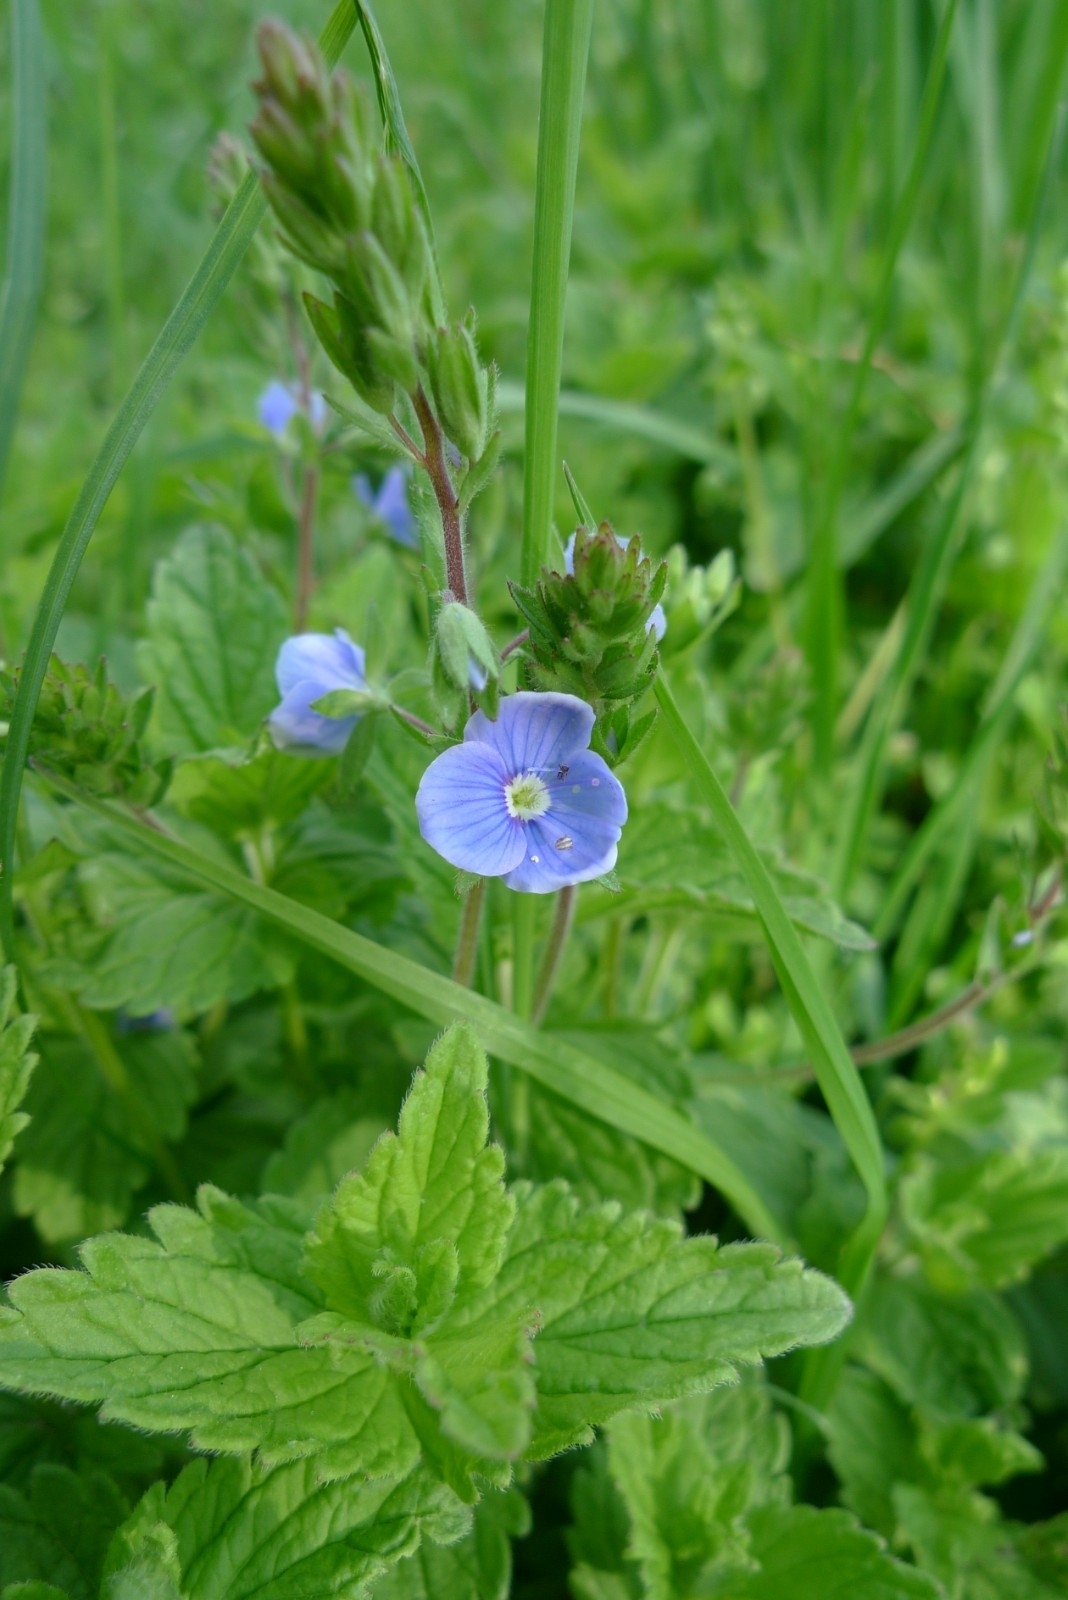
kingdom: Plantae
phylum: Tracheophyta
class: Magnoliopsida
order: Lamiales
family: Plantaginaceae
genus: Veronica
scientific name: Veronica chamaedrys
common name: Germander speedwell
